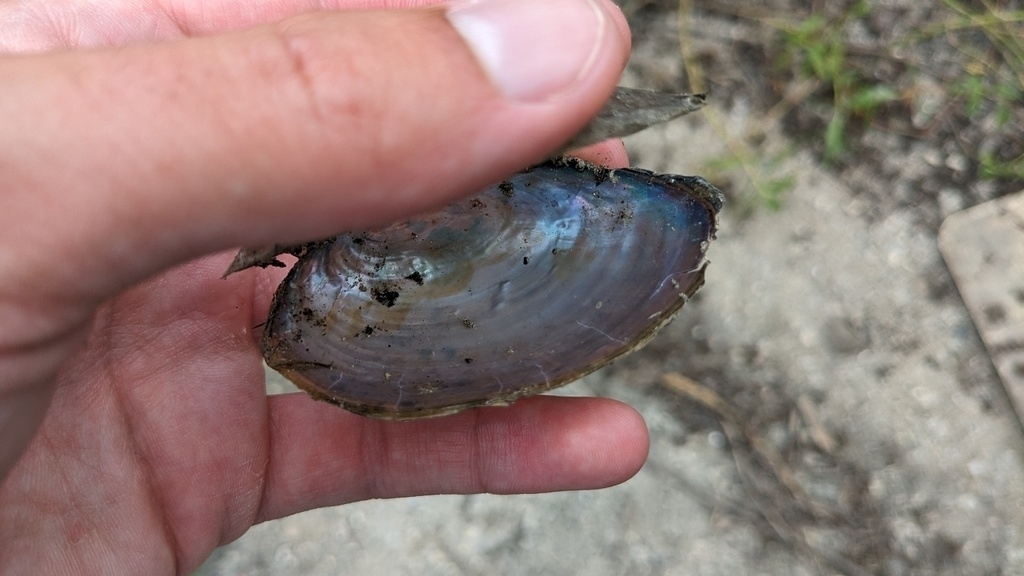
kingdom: Animalia
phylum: Mollusca
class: Bivalvia
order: Unionida
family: Unionidae
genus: Utterbackia
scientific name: Utterbackia imbecillis
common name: Paper pondshell
